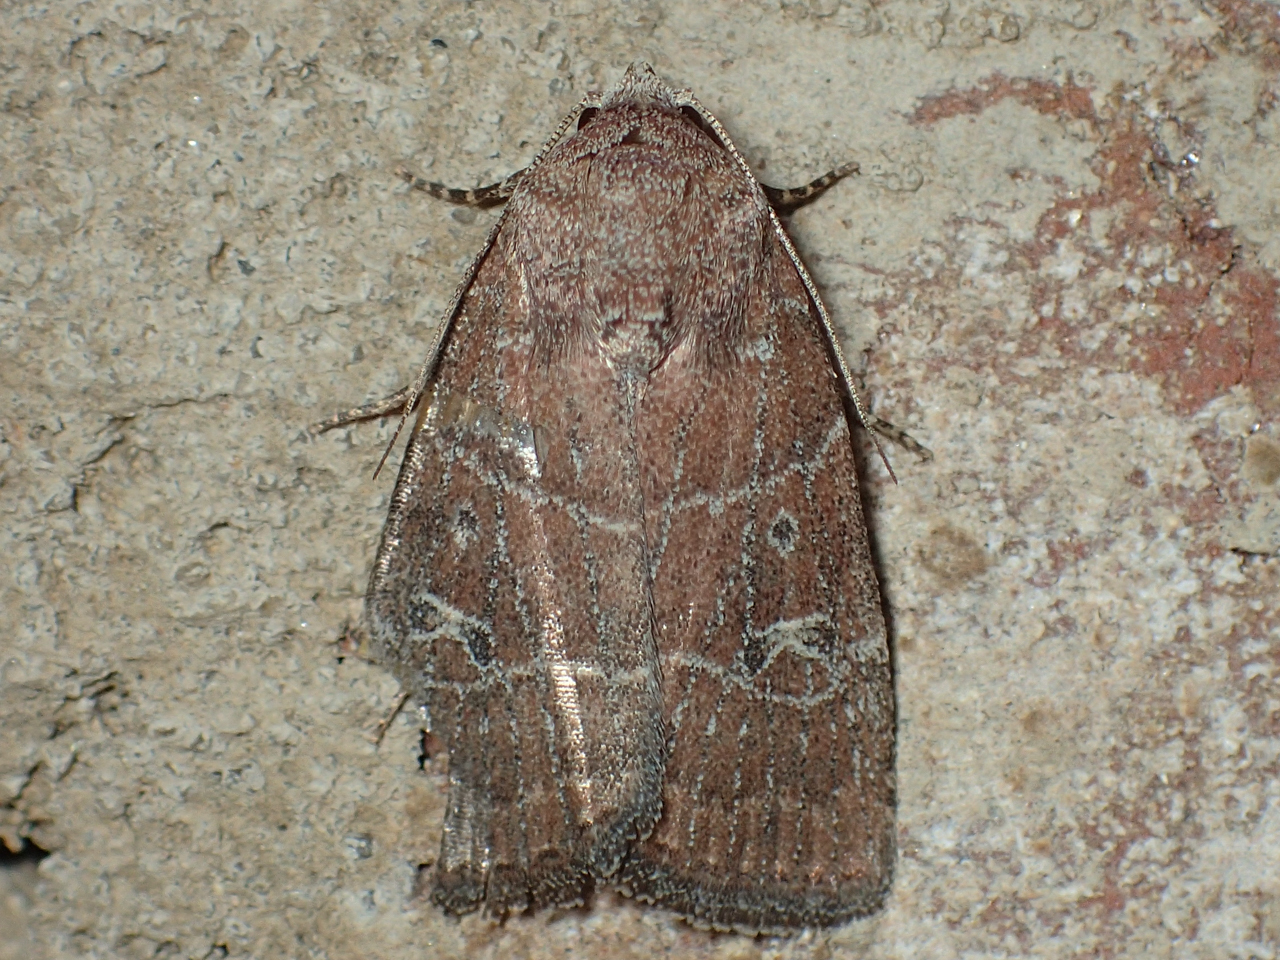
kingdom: Animalia
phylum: Arthropoda
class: Insecta
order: Lepidoptera
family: Noctuidae
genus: Elaphria
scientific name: Elaphria grata
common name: Grateful midget moth
